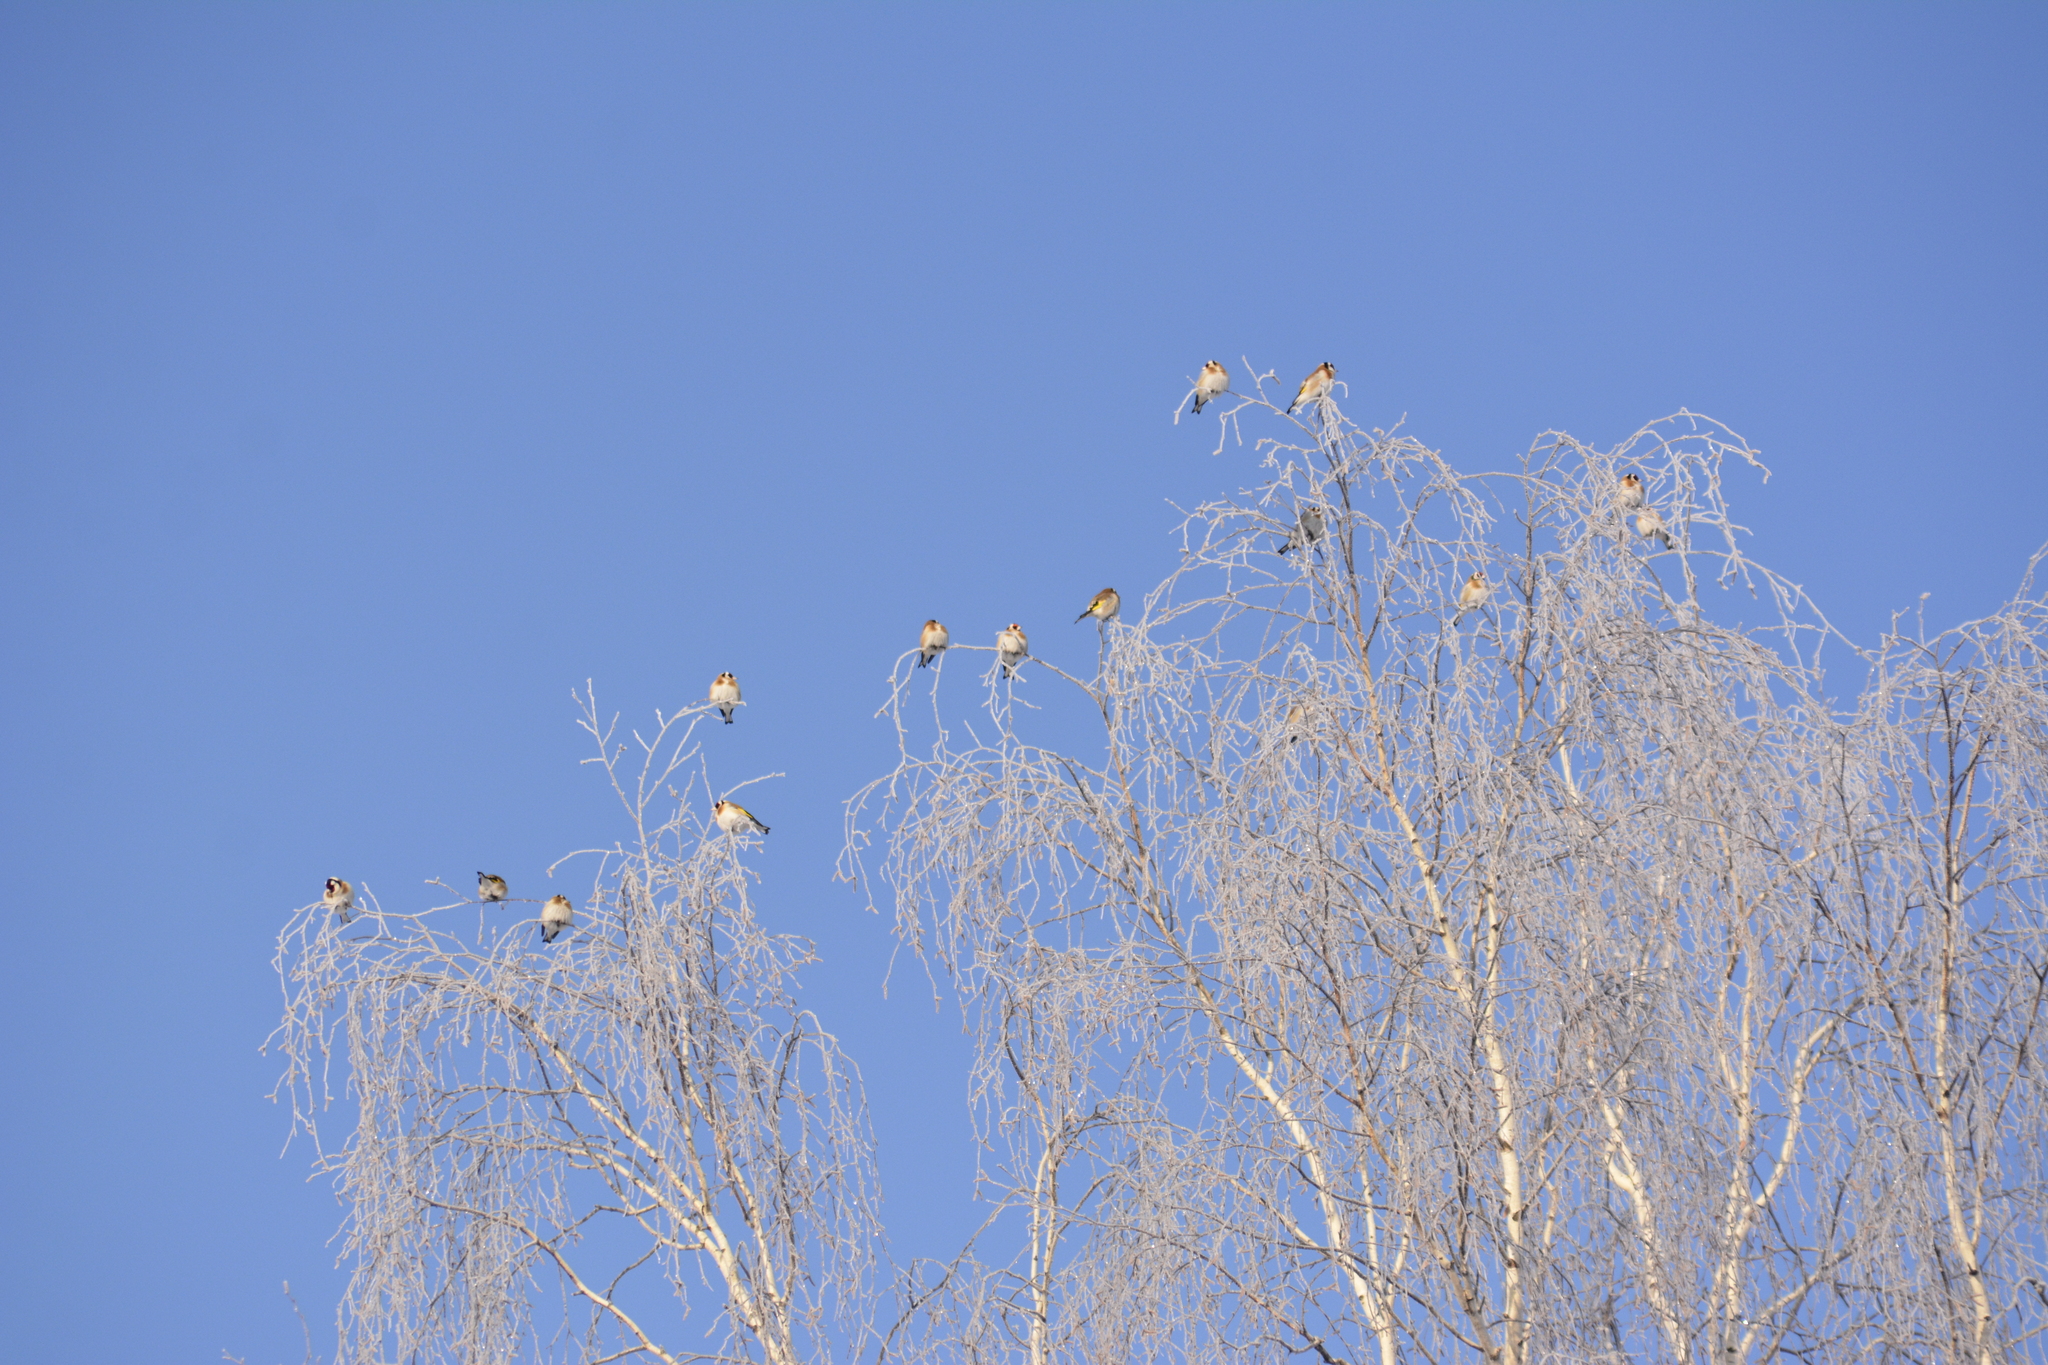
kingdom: Animalia
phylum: Chordata
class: Aves
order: Passeriformes
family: Fringillidae
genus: Carduelis
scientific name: Carduelis carduelis
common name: European goldfinch
